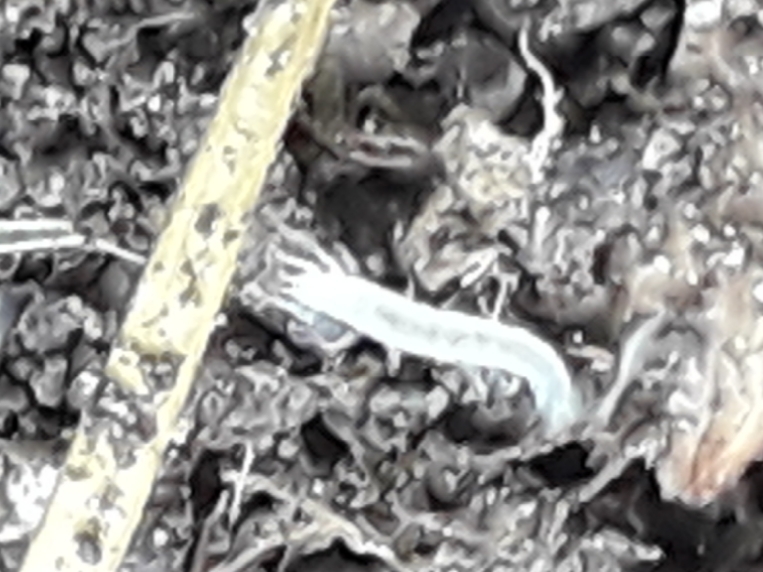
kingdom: Animalia
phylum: Arthropoda
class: Symphyla
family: Scutigerellidae
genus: Scutigerella
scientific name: Scutigerella
